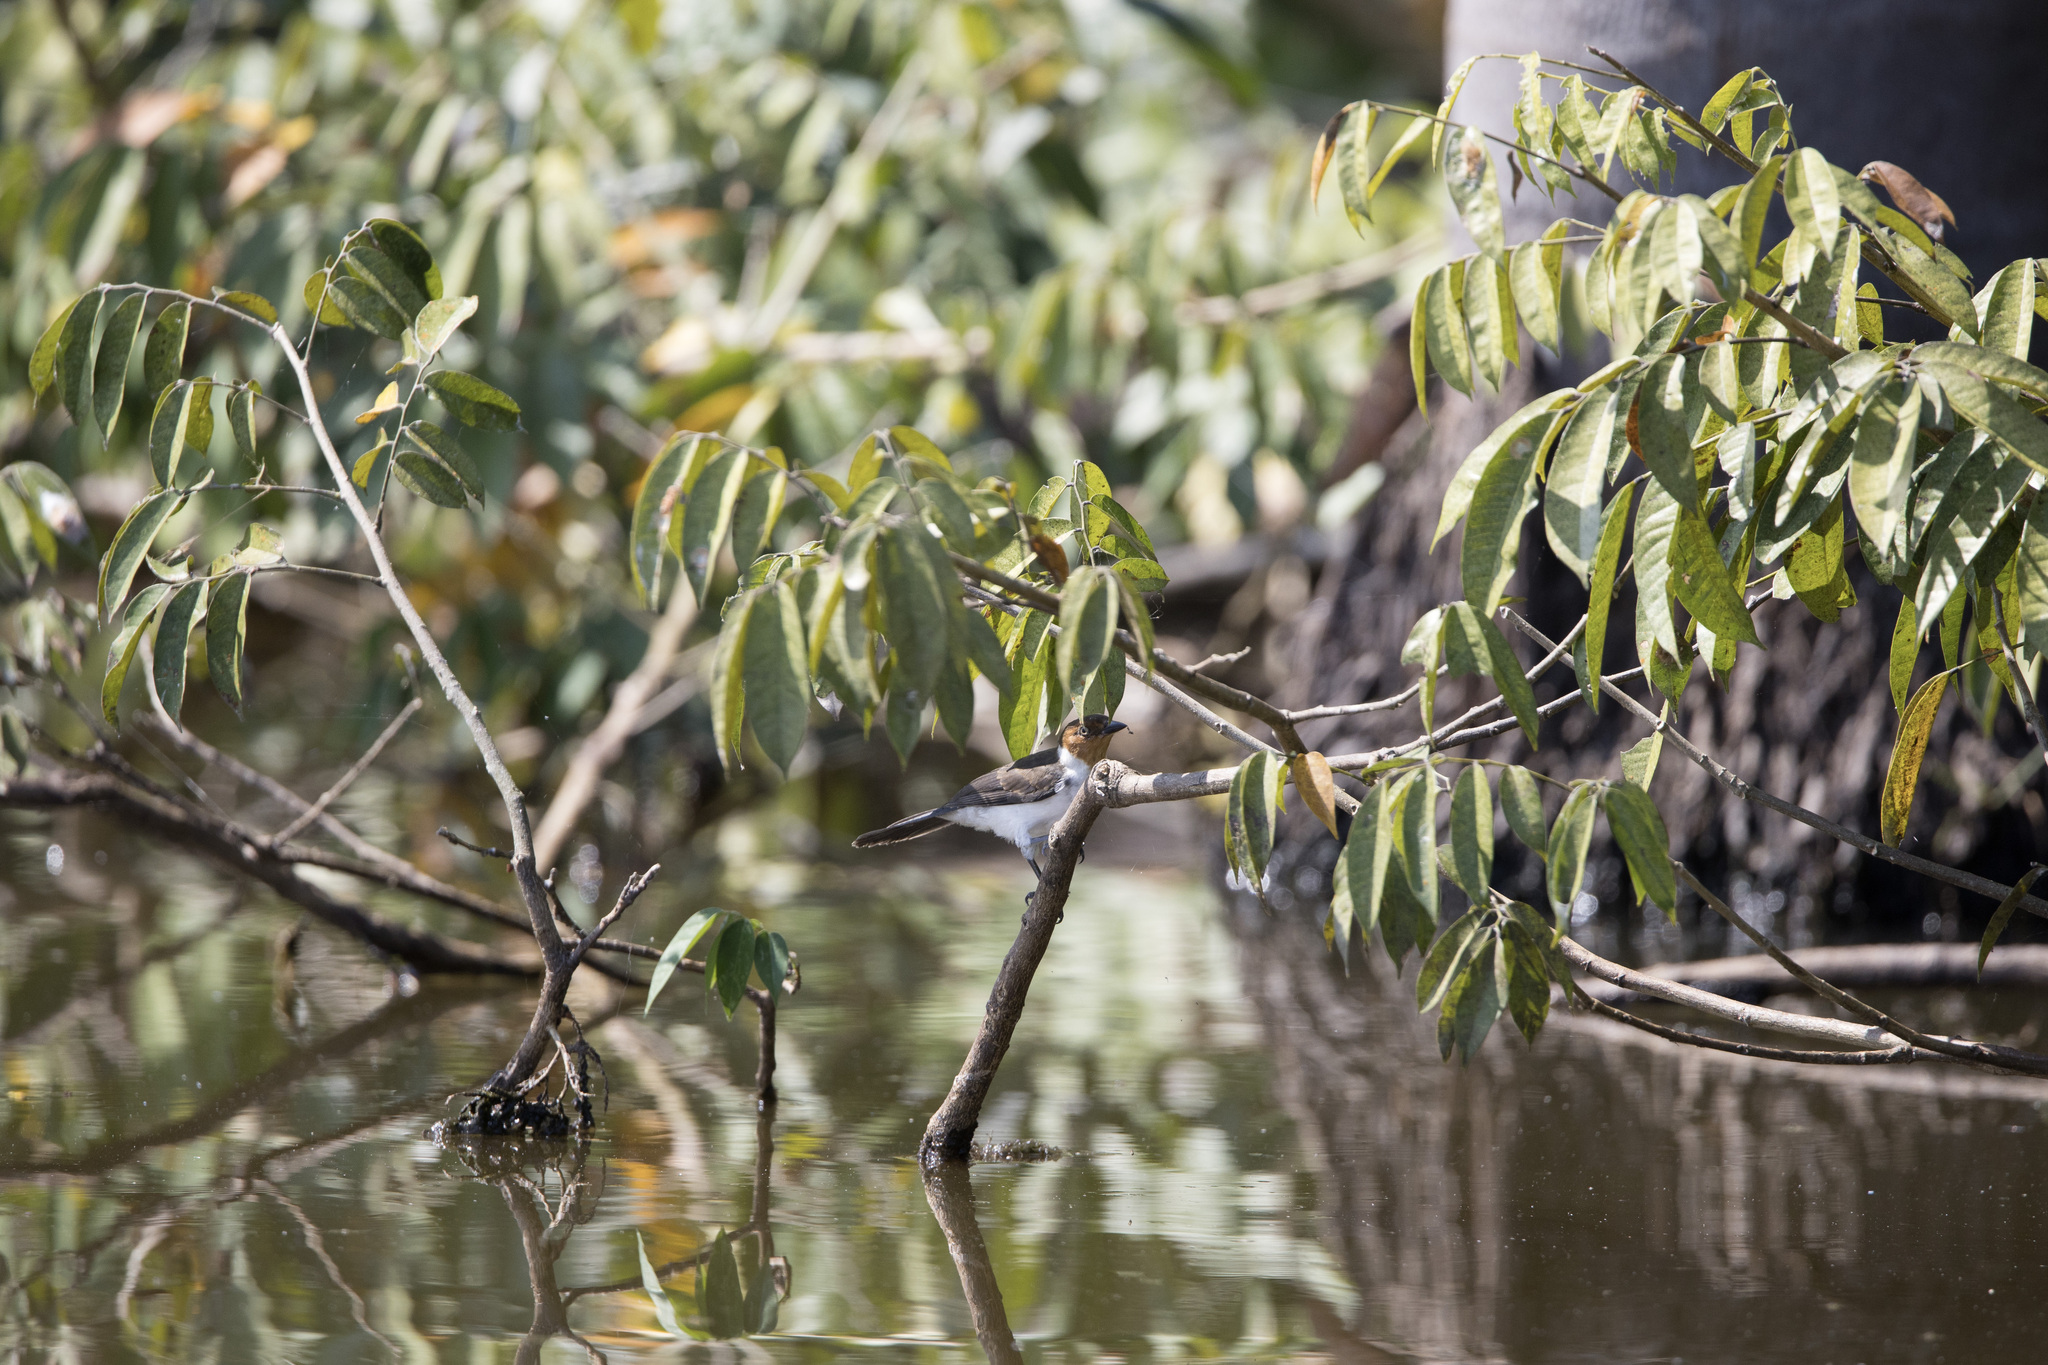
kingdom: Animalia
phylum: Chordata
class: Aves
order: Passeriformes
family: Thraupidae
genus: Paroaria
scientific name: Paroaria gularis
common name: Red-capped cardinal
